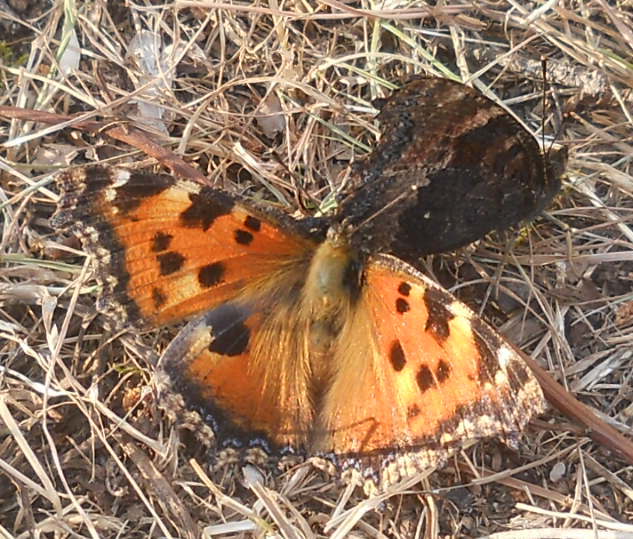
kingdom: Animalia
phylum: Arthropoda
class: Insecta
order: Lepidoptera
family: Nymphalidae
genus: Nymphalis
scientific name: Nymphalis xanthomelas
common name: Scarce tortoiseshell
